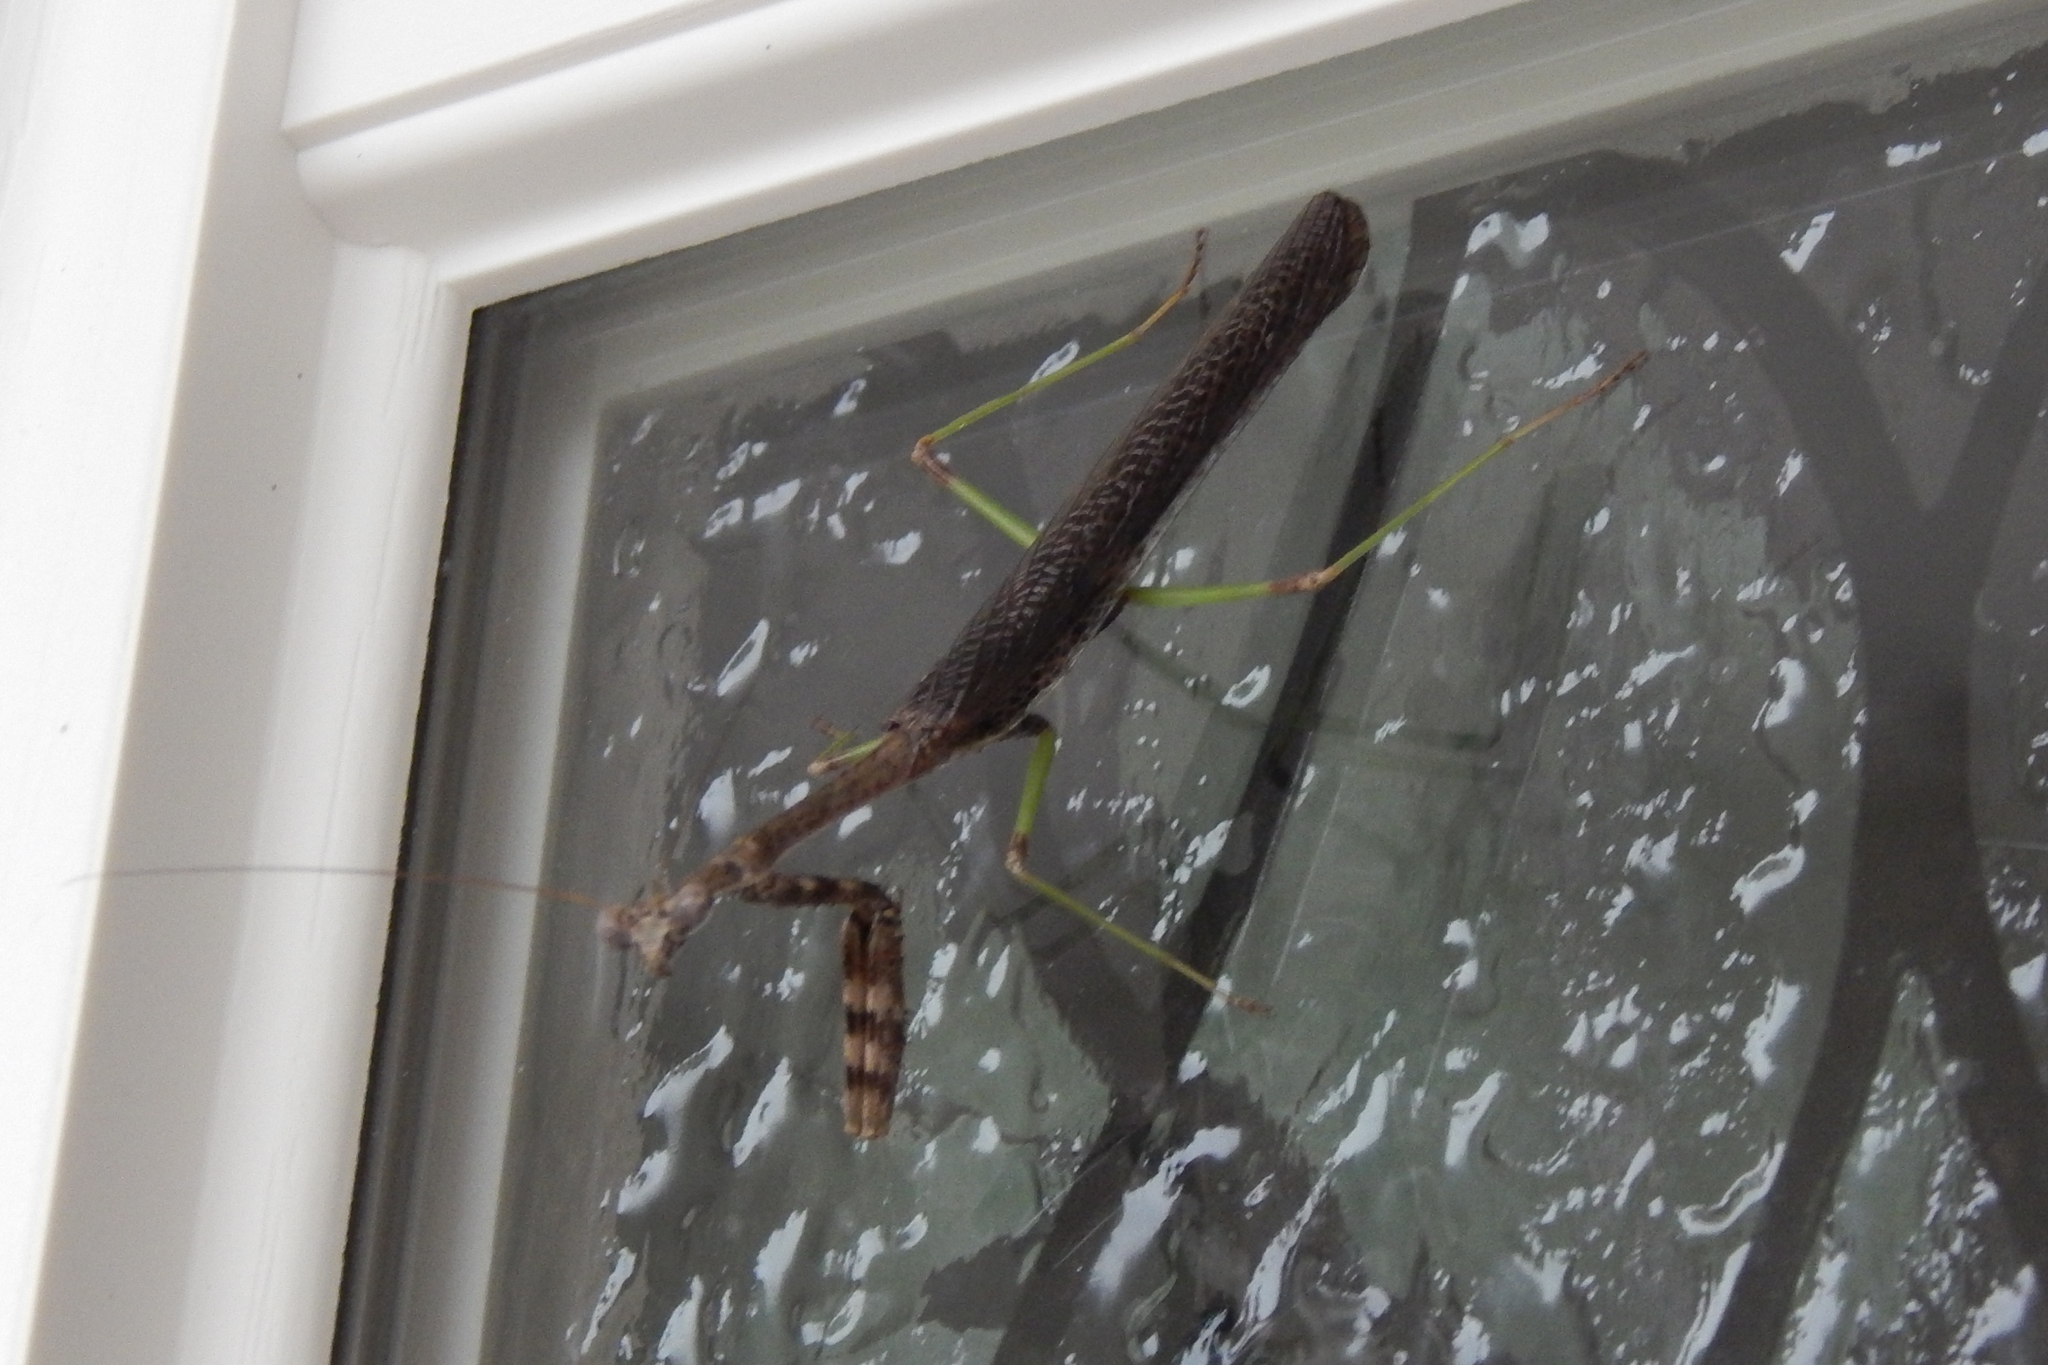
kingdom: Animalia
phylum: Arthropoda
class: Insecta
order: Mantodea
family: Mantidae
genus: Stagmomantis
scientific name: Stagmomantis carolina
